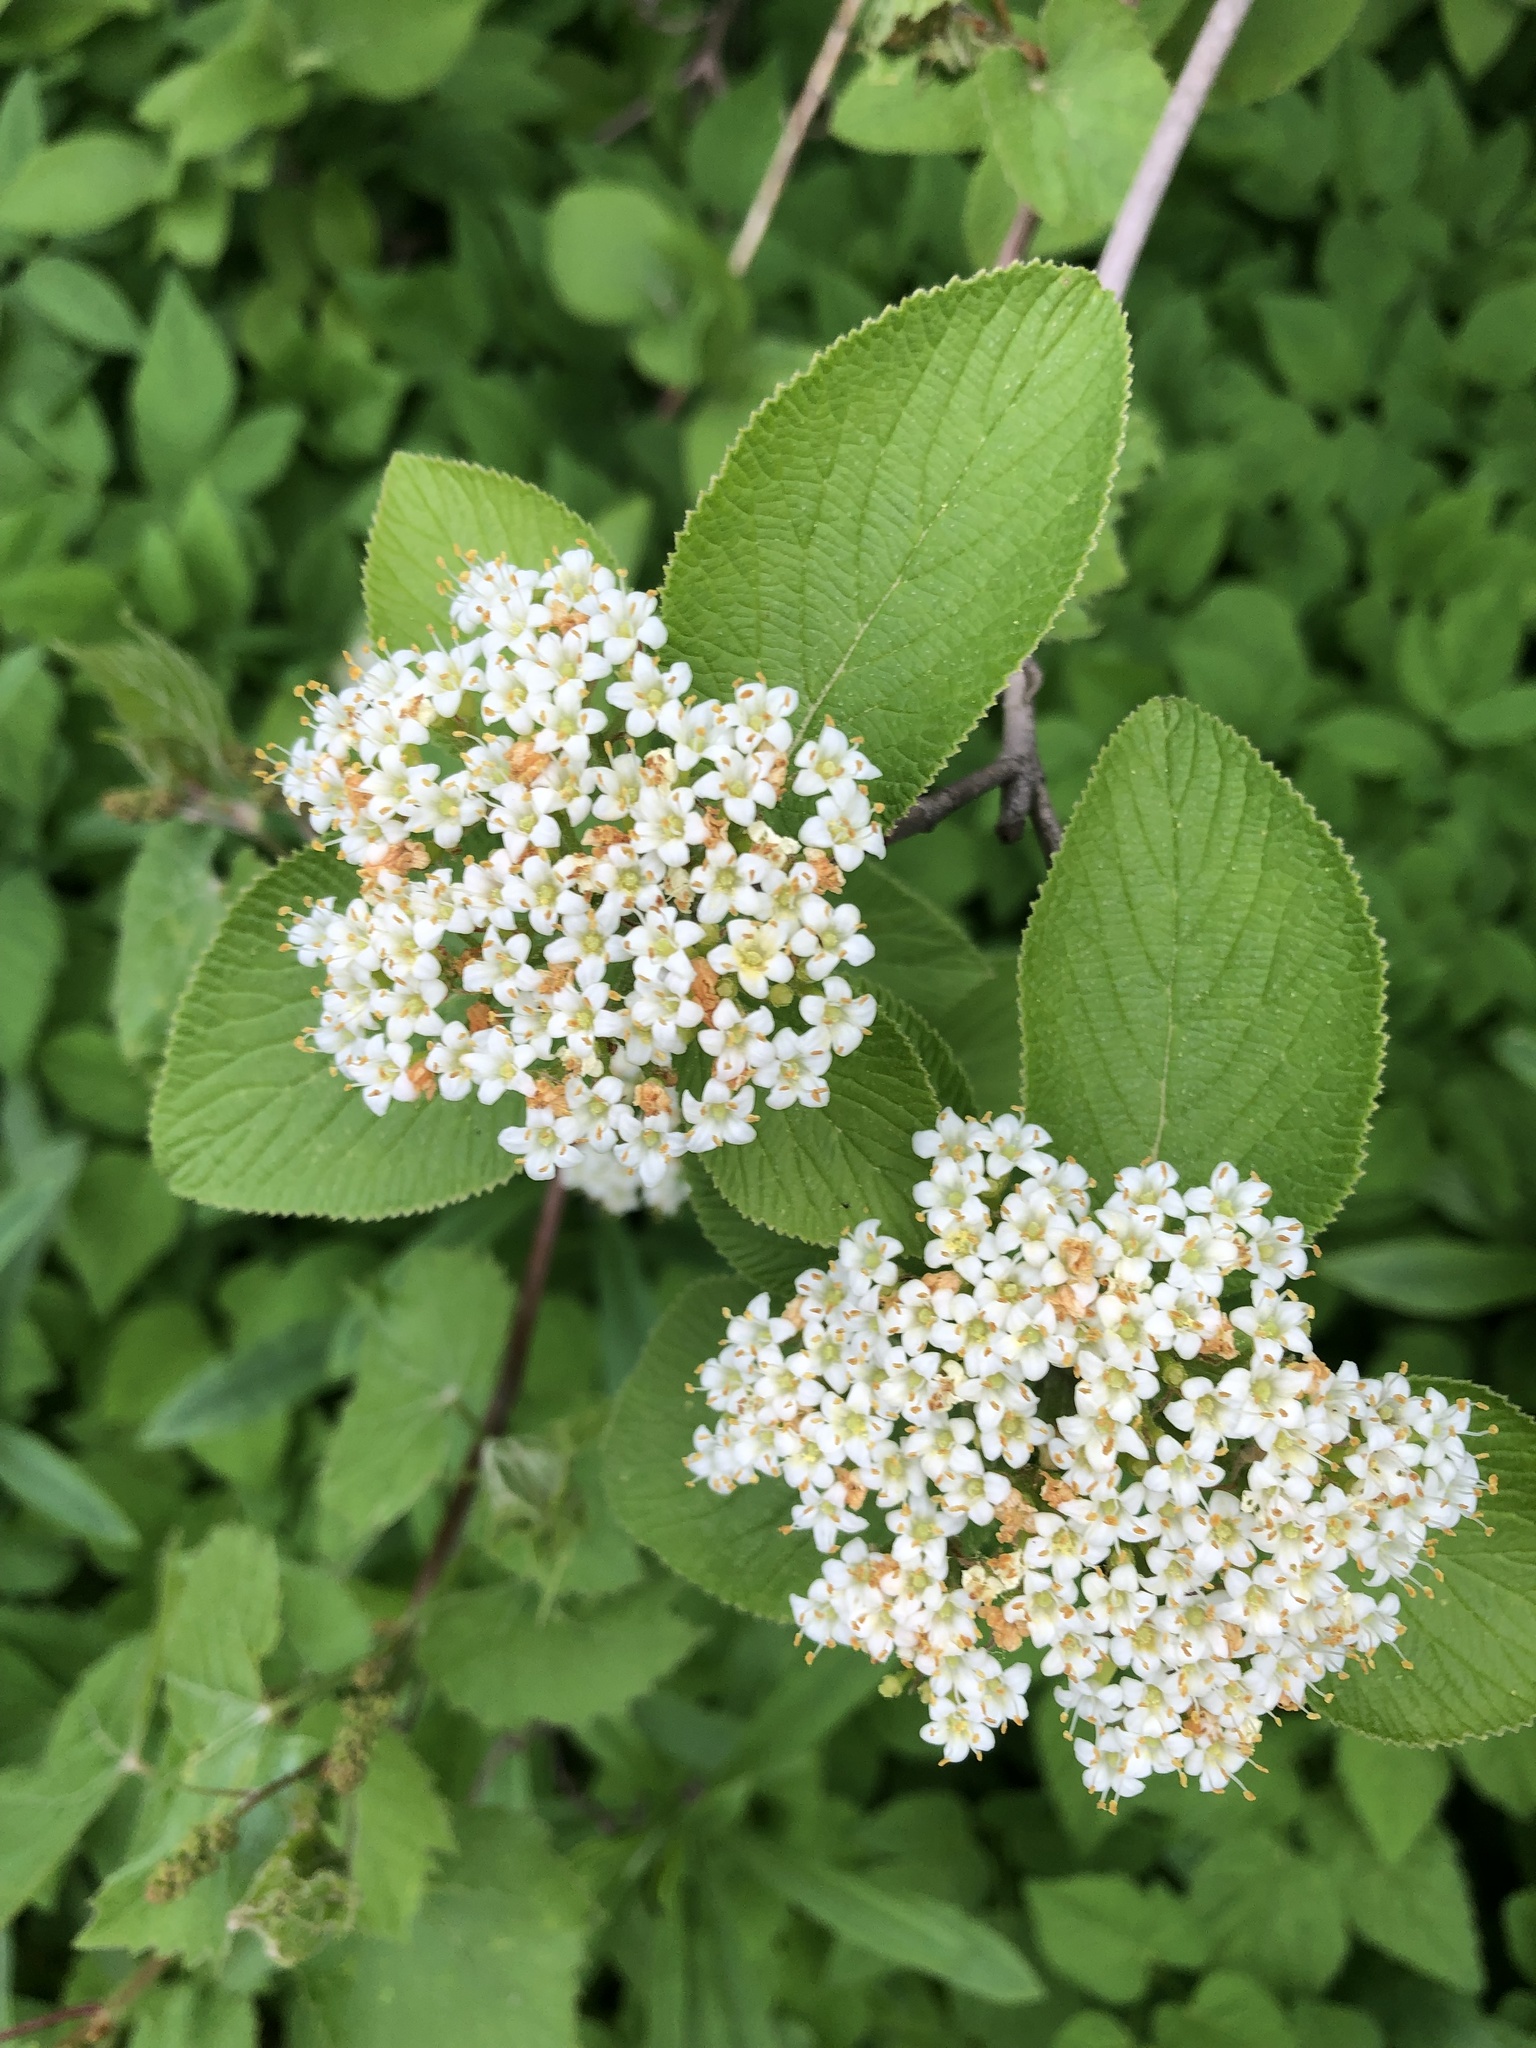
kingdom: Plantae
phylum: Tracheophyta
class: Magnoliopsida
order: Dipsacales
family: Viburnaceae
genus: Viburnum
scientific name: Viburnum lantana
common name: Wayfaring tree
